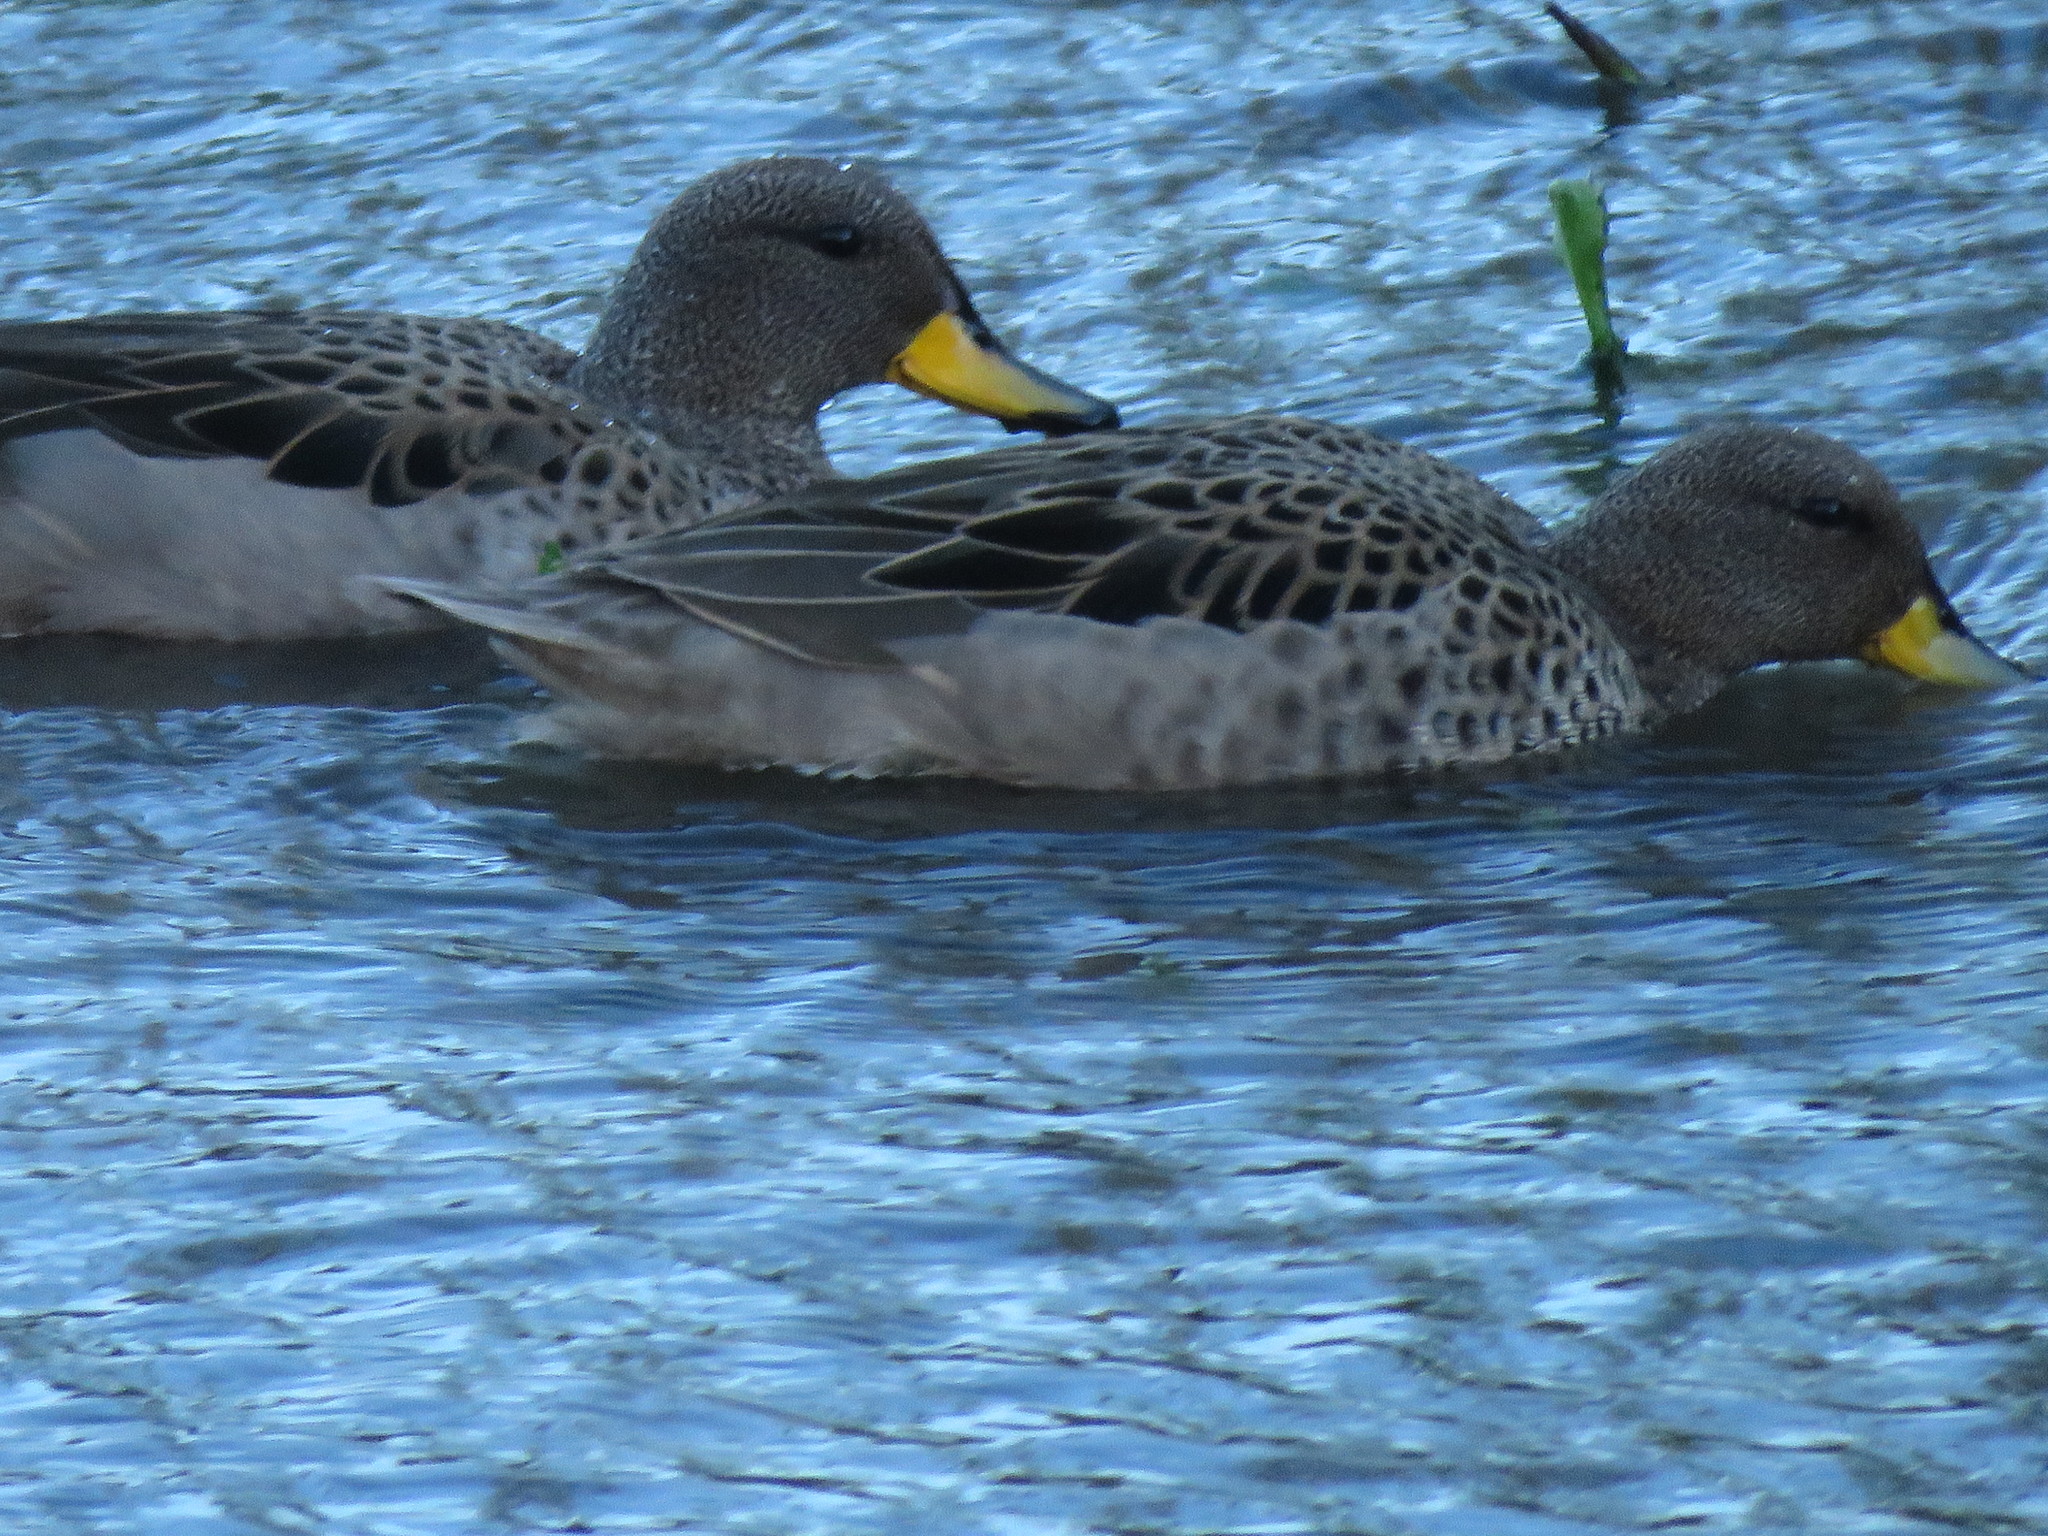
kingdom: Animalia
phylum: Chordata
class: Aves
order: Anseriformes
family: Anatidae
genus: Anas
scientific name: Anas flavirostris
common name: Yellow-billed teal
